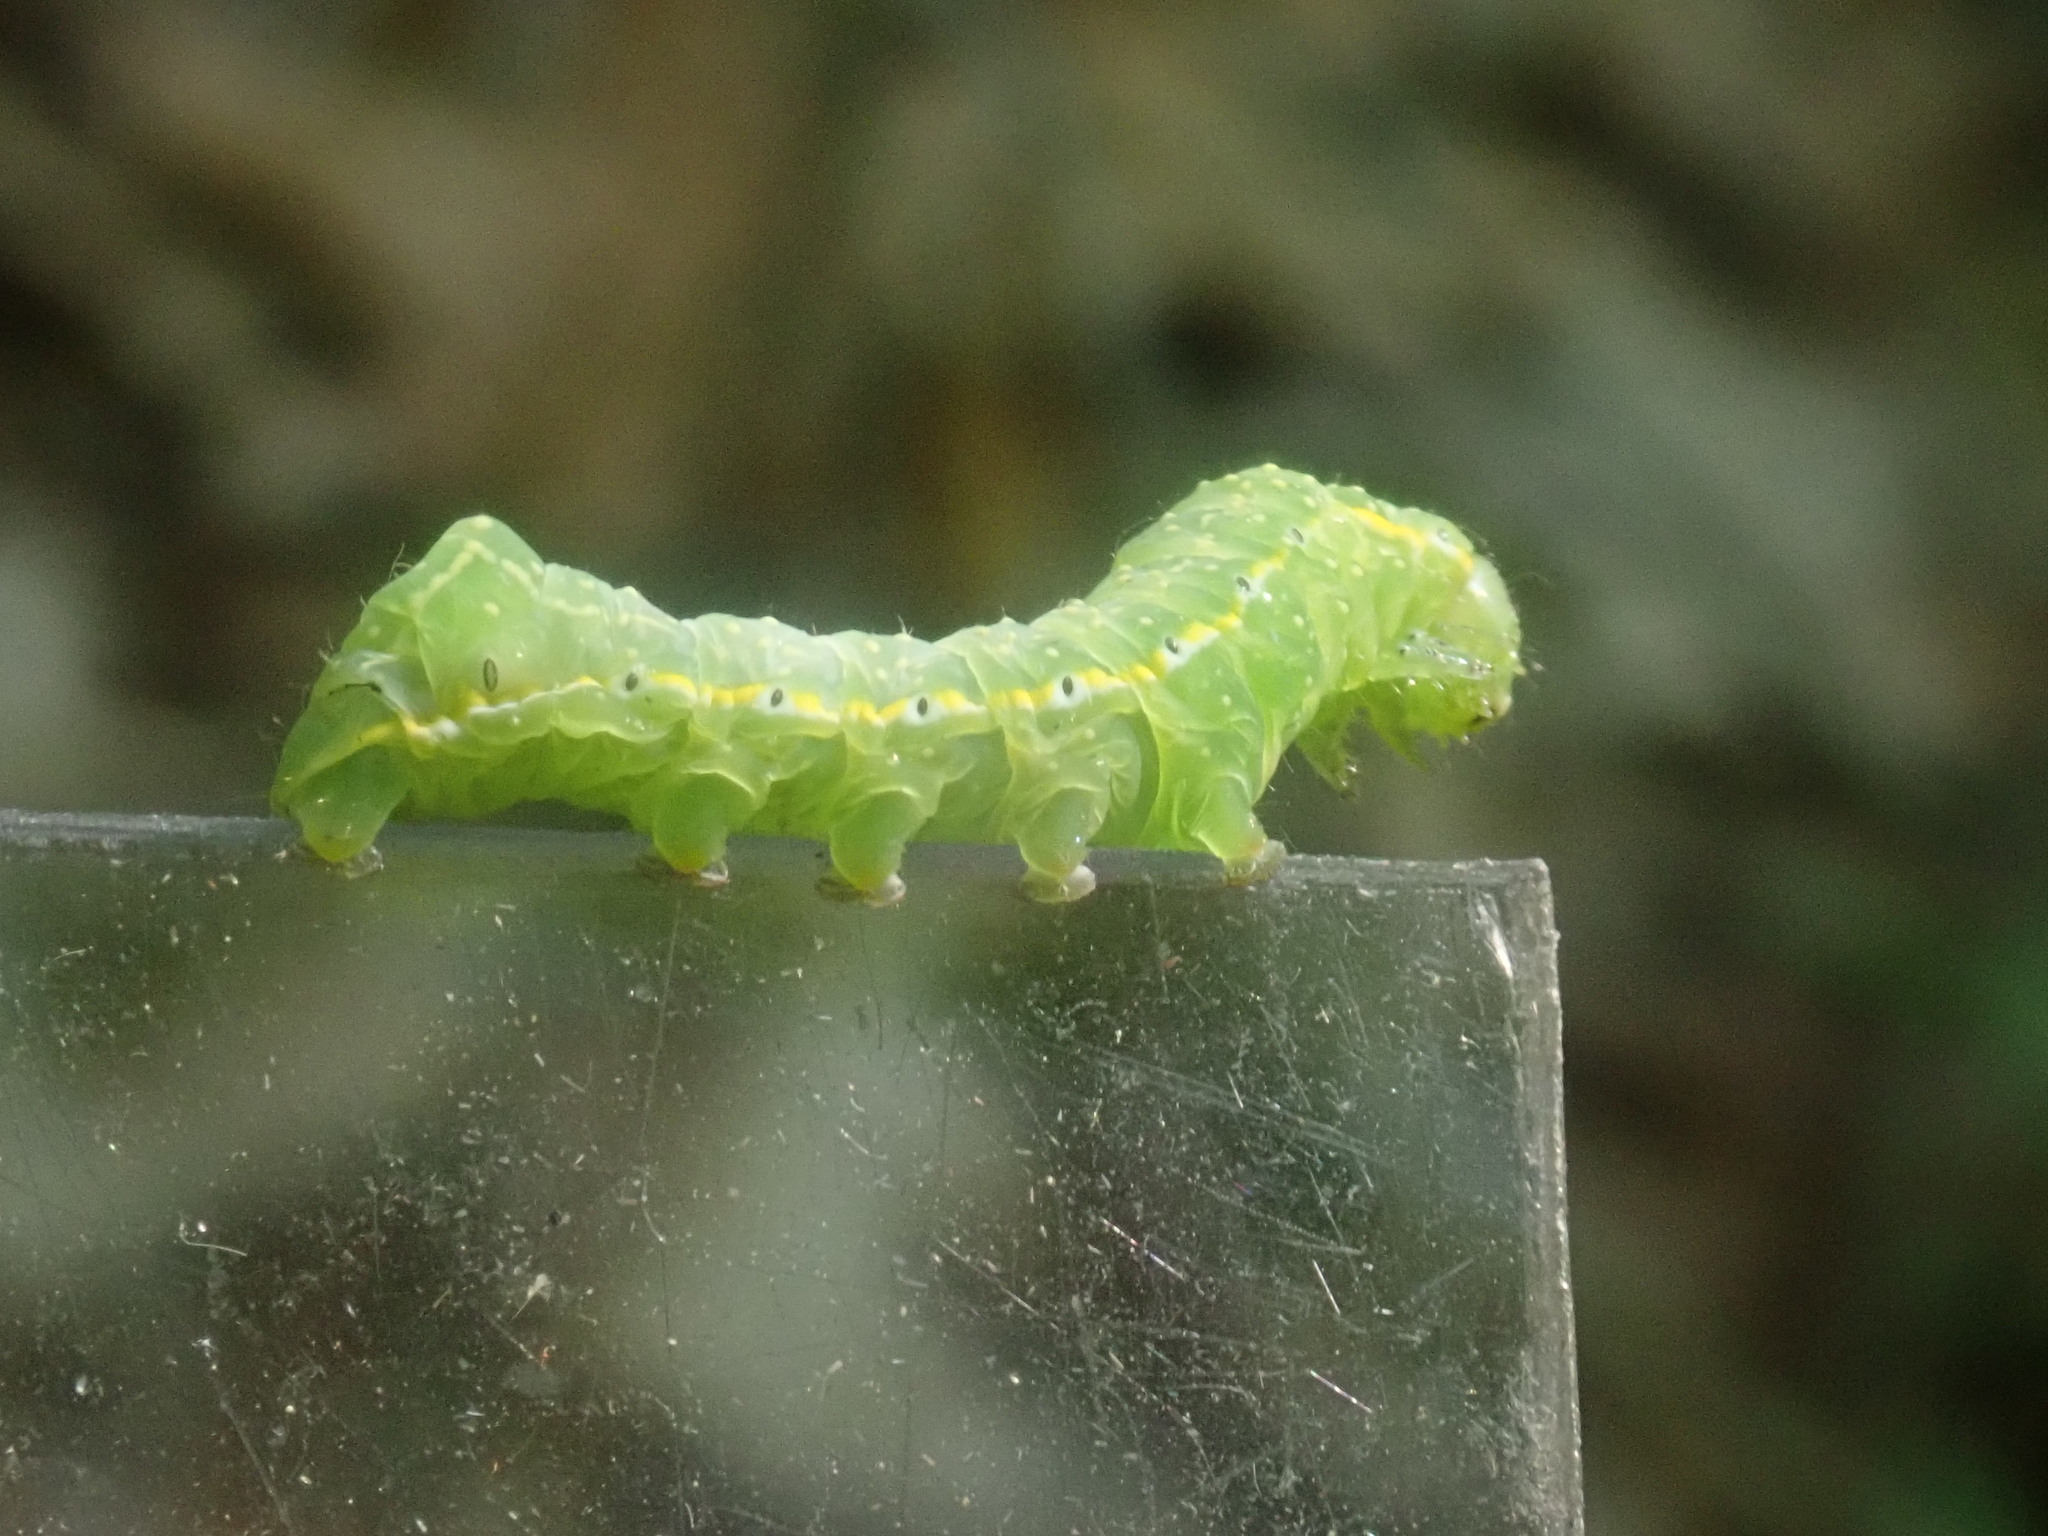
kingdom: Animalia
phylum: Arthropoda
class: Insecta
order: Lepidoptera
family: Noctuidae
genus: Amphipyra
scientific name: Amphipyra pyramidoides
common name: American copper underwing
